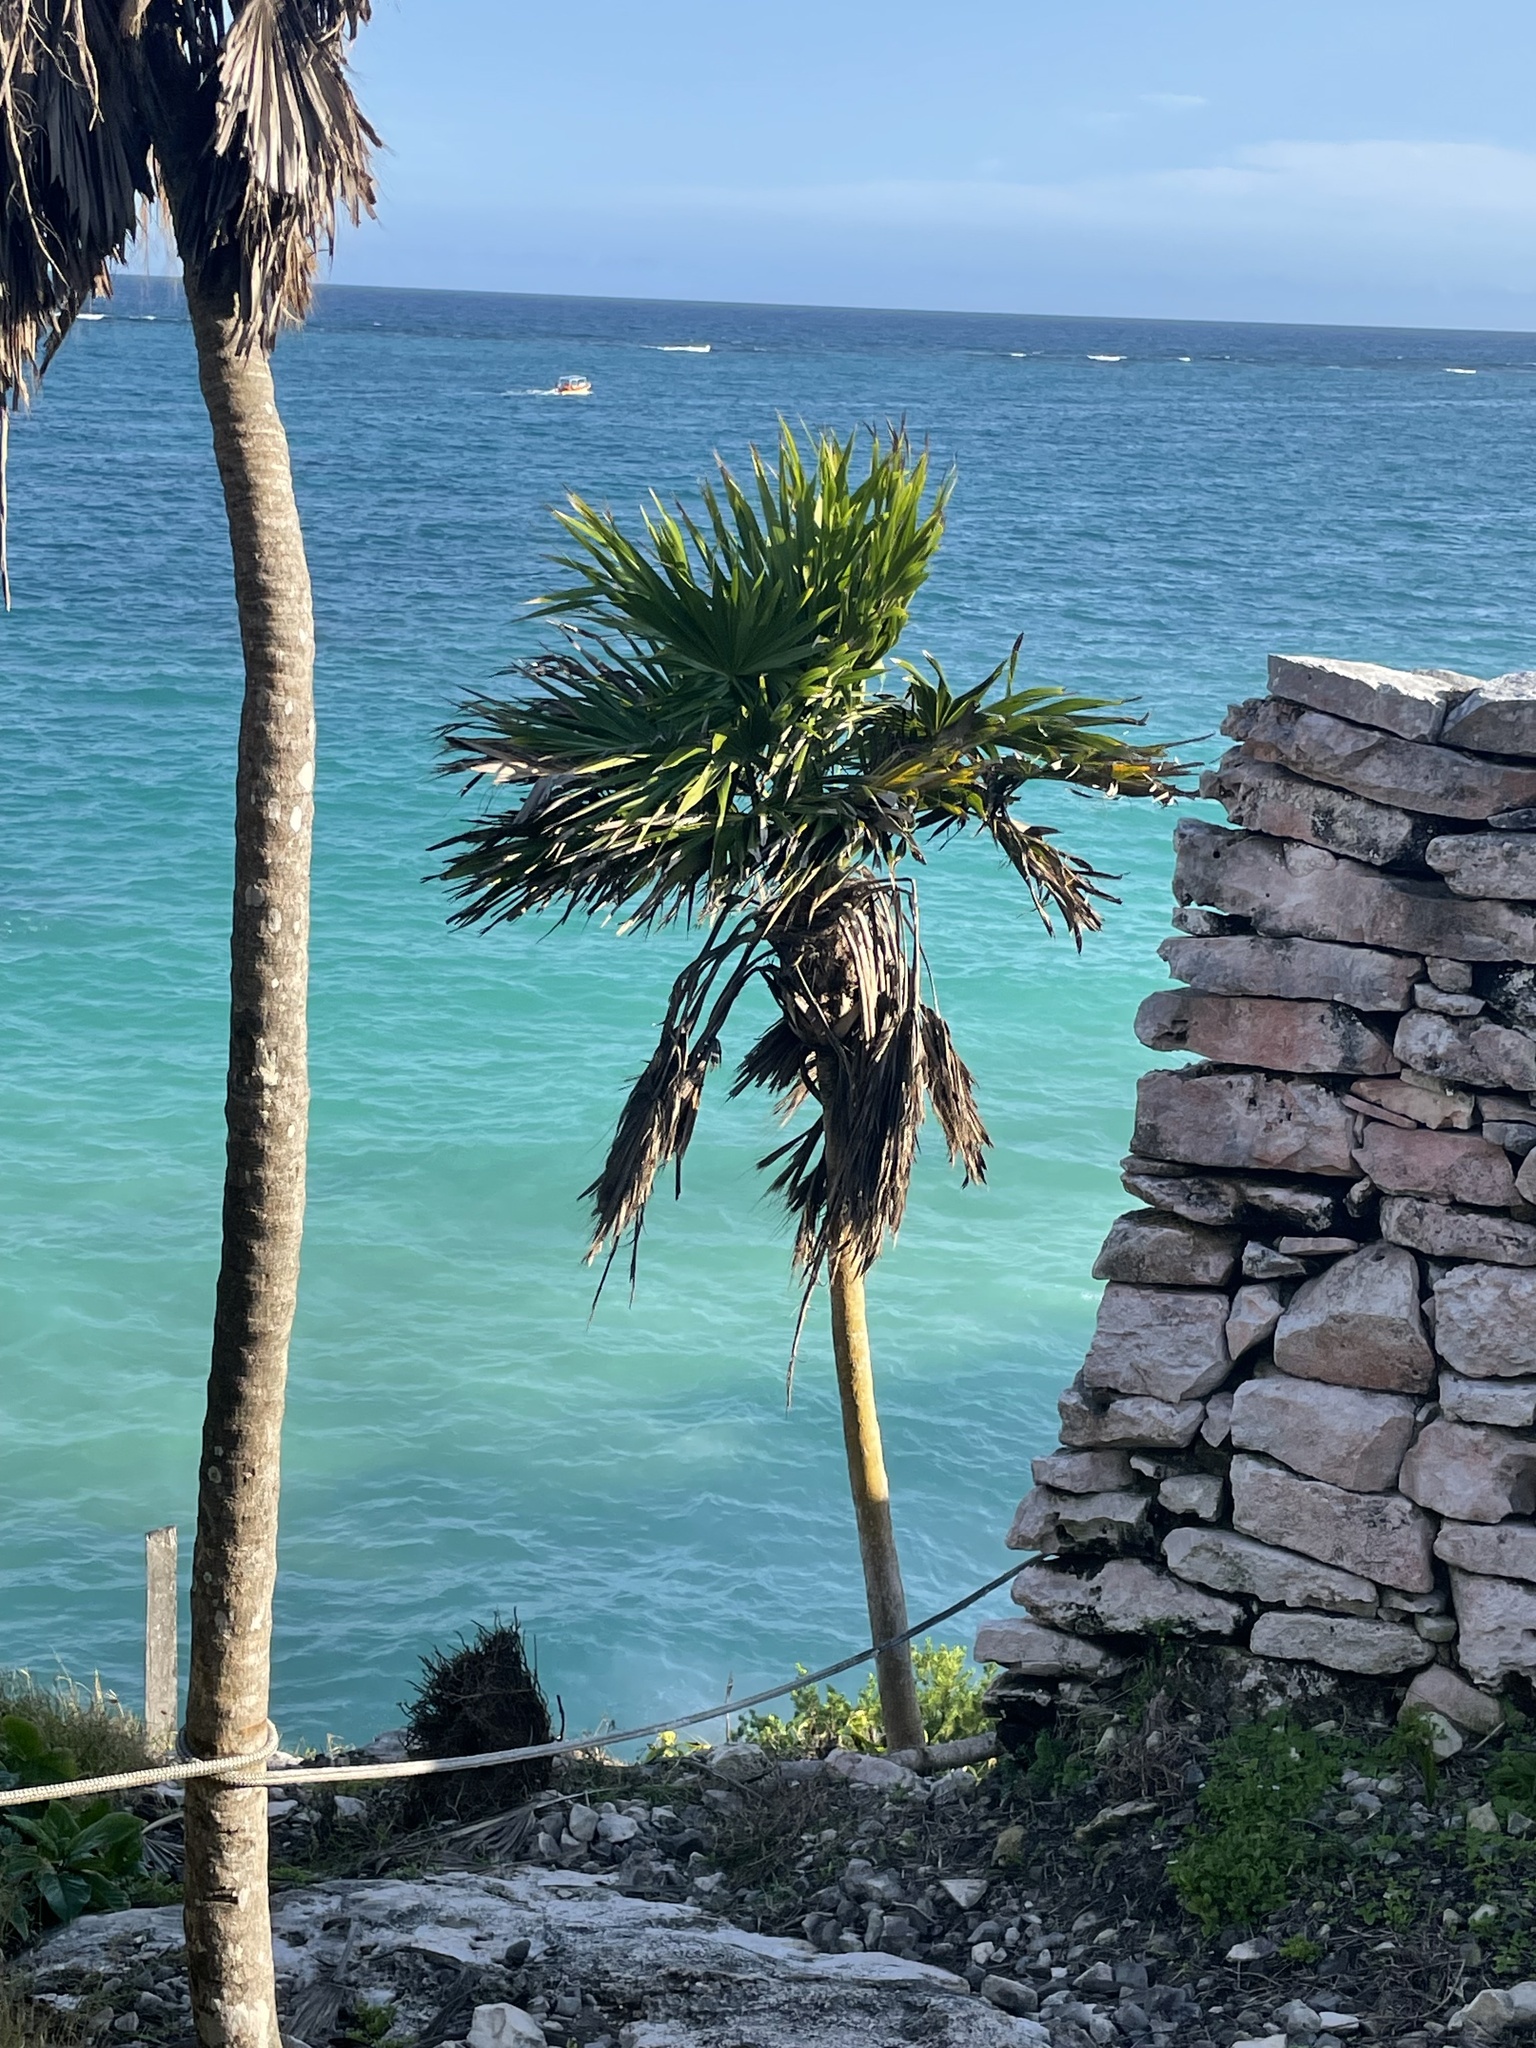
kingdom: Plantae
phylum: Tracheophyta
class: Liliopsida
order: Arecales
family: Arecaceae
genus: Thrinax
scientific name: Thrinax radiata
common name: Florida thatch
